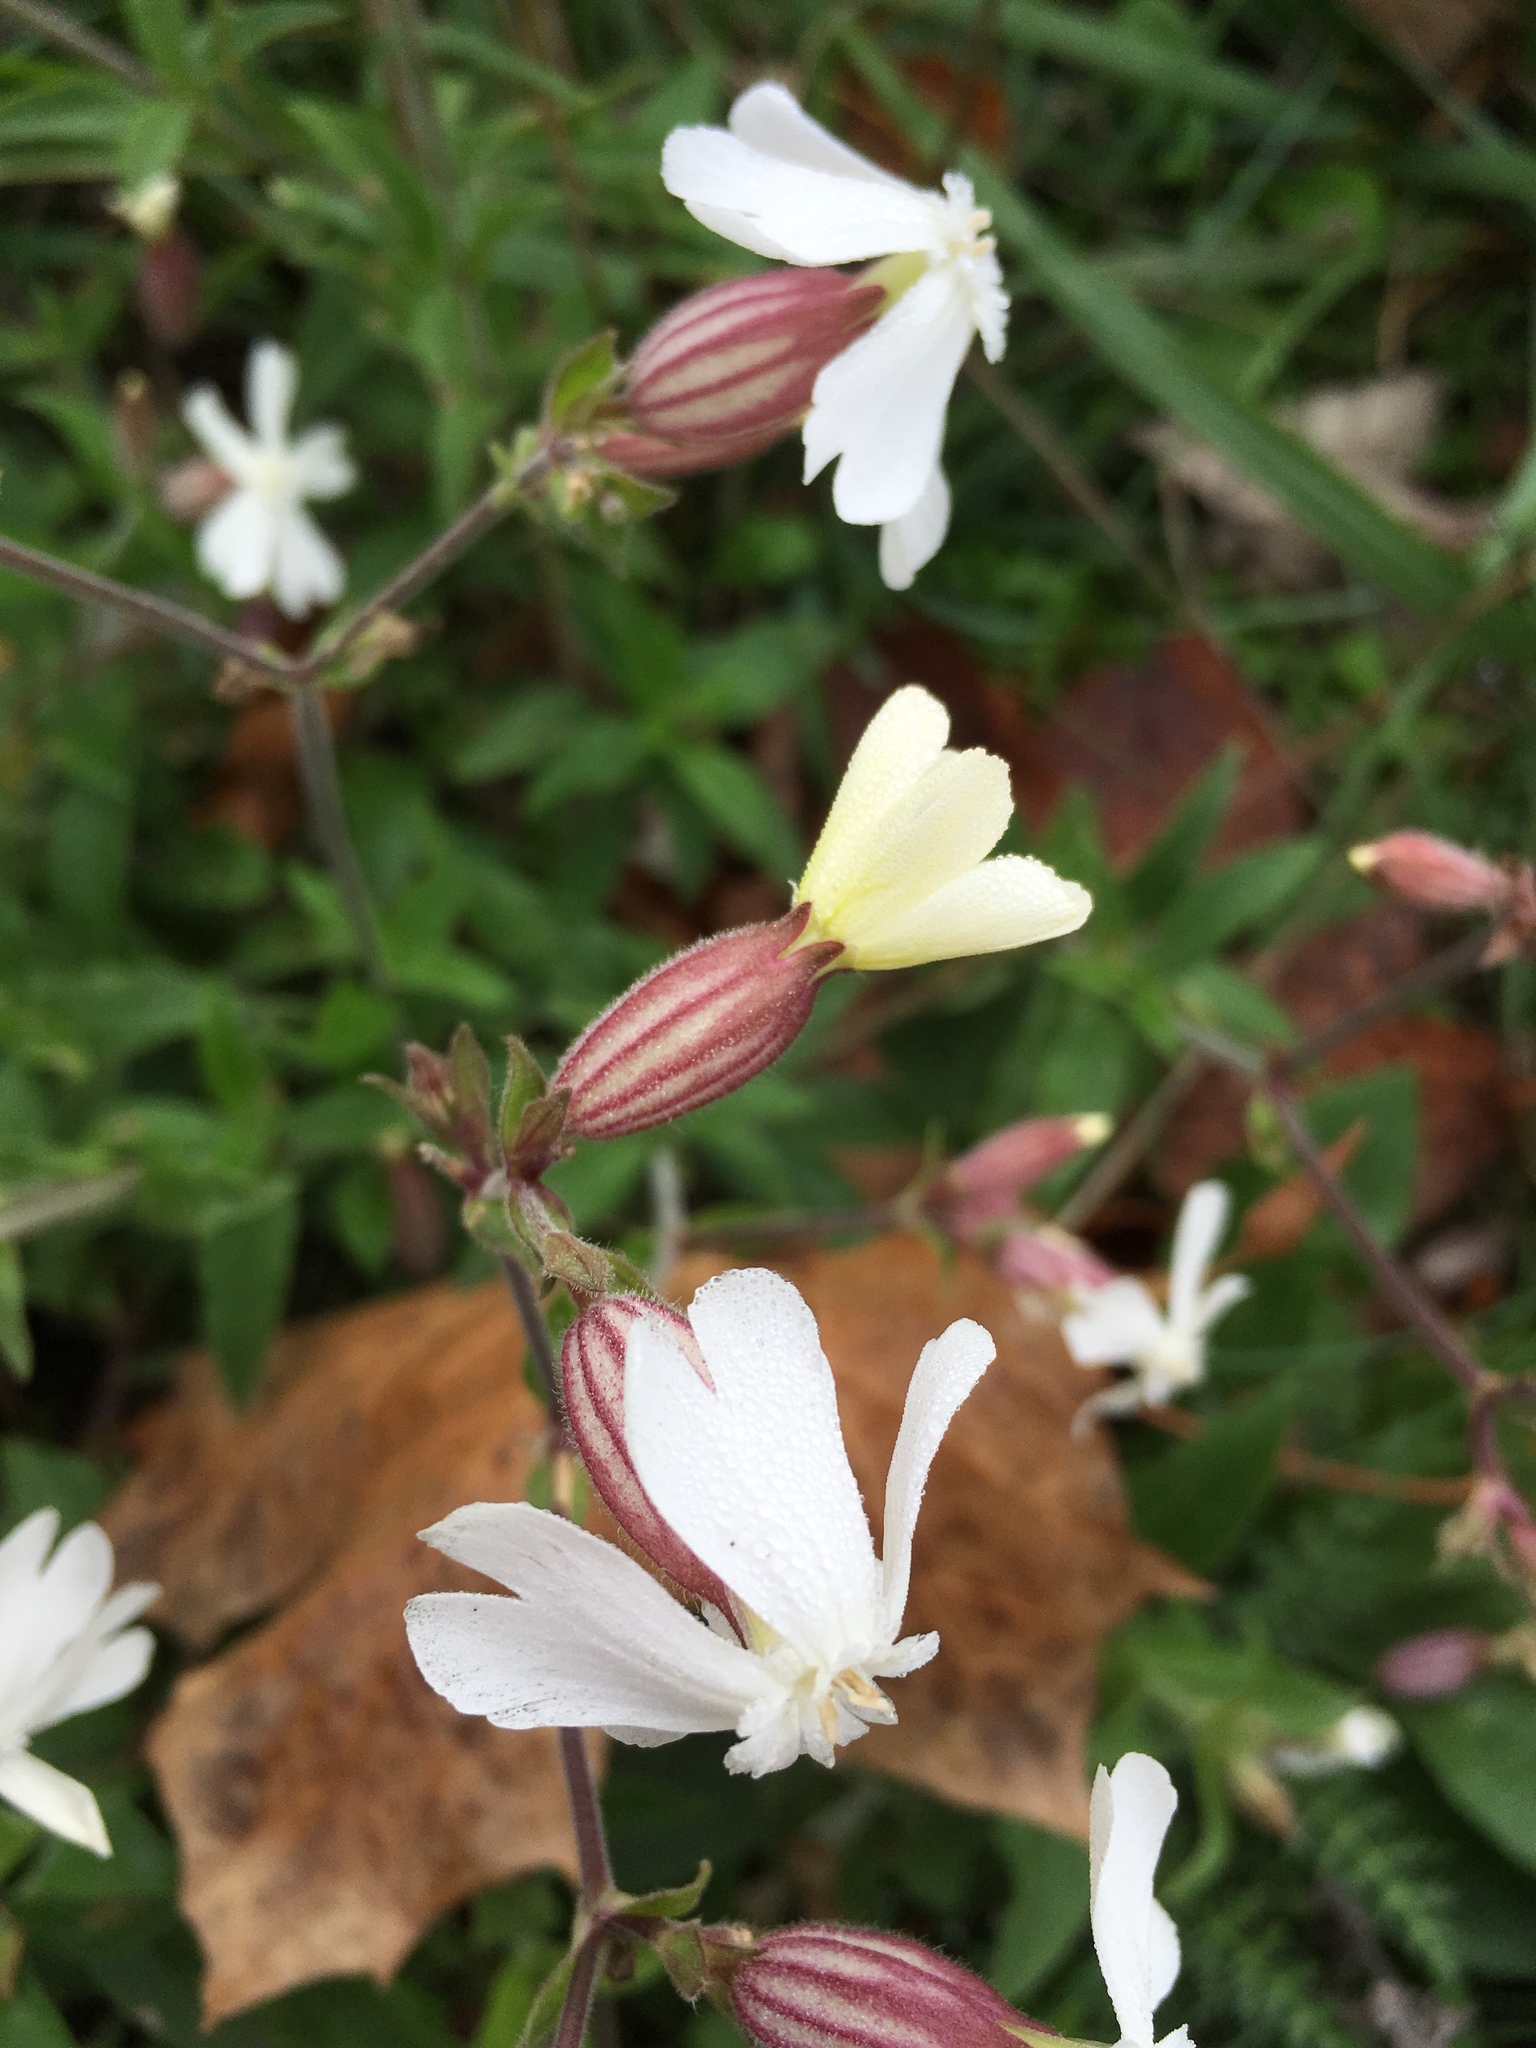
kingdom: Plantae
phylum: Tracheophyta
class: Magnoliopsida
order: Caryophyllales
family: Caryophyllaceae
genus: Silene
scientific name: Silene latifolia
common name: White campion
